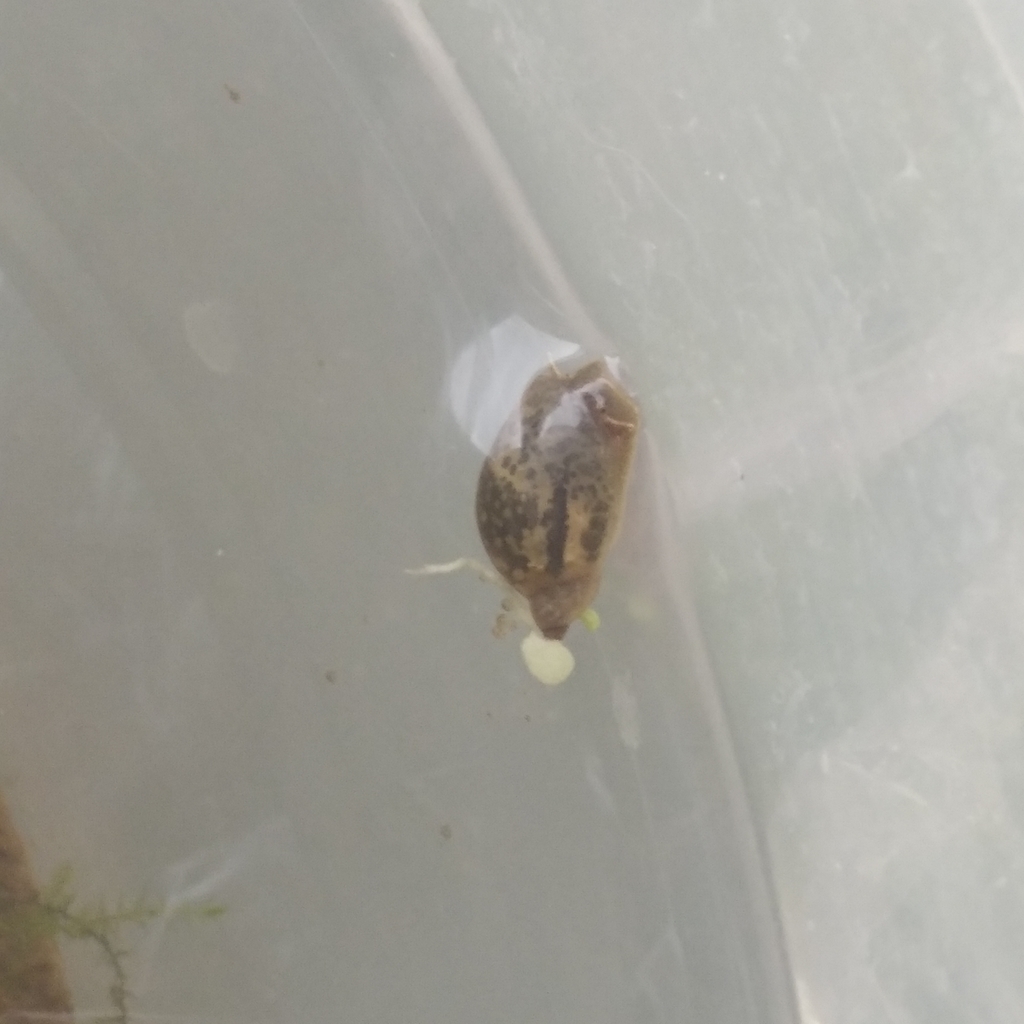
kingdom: Animalia
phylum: Mollusca
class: Gastropoda
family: Lymnaeidae
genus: Ampullaceana
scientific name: Ampullaceana balthica
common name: Wandering pond snail
